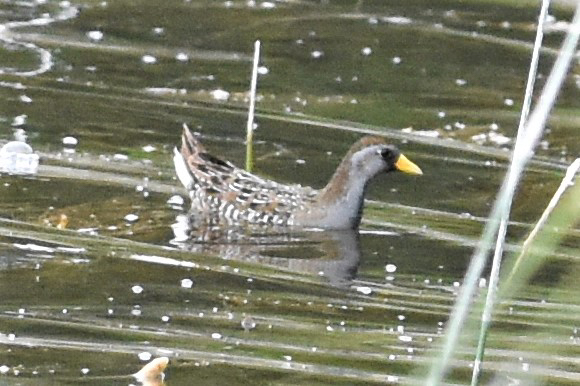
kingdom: Animalia
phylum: Chordata
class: Aves
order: Gruiformes
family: Rallidae
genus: Porzana
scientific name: Porzana carolina
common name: Sora
